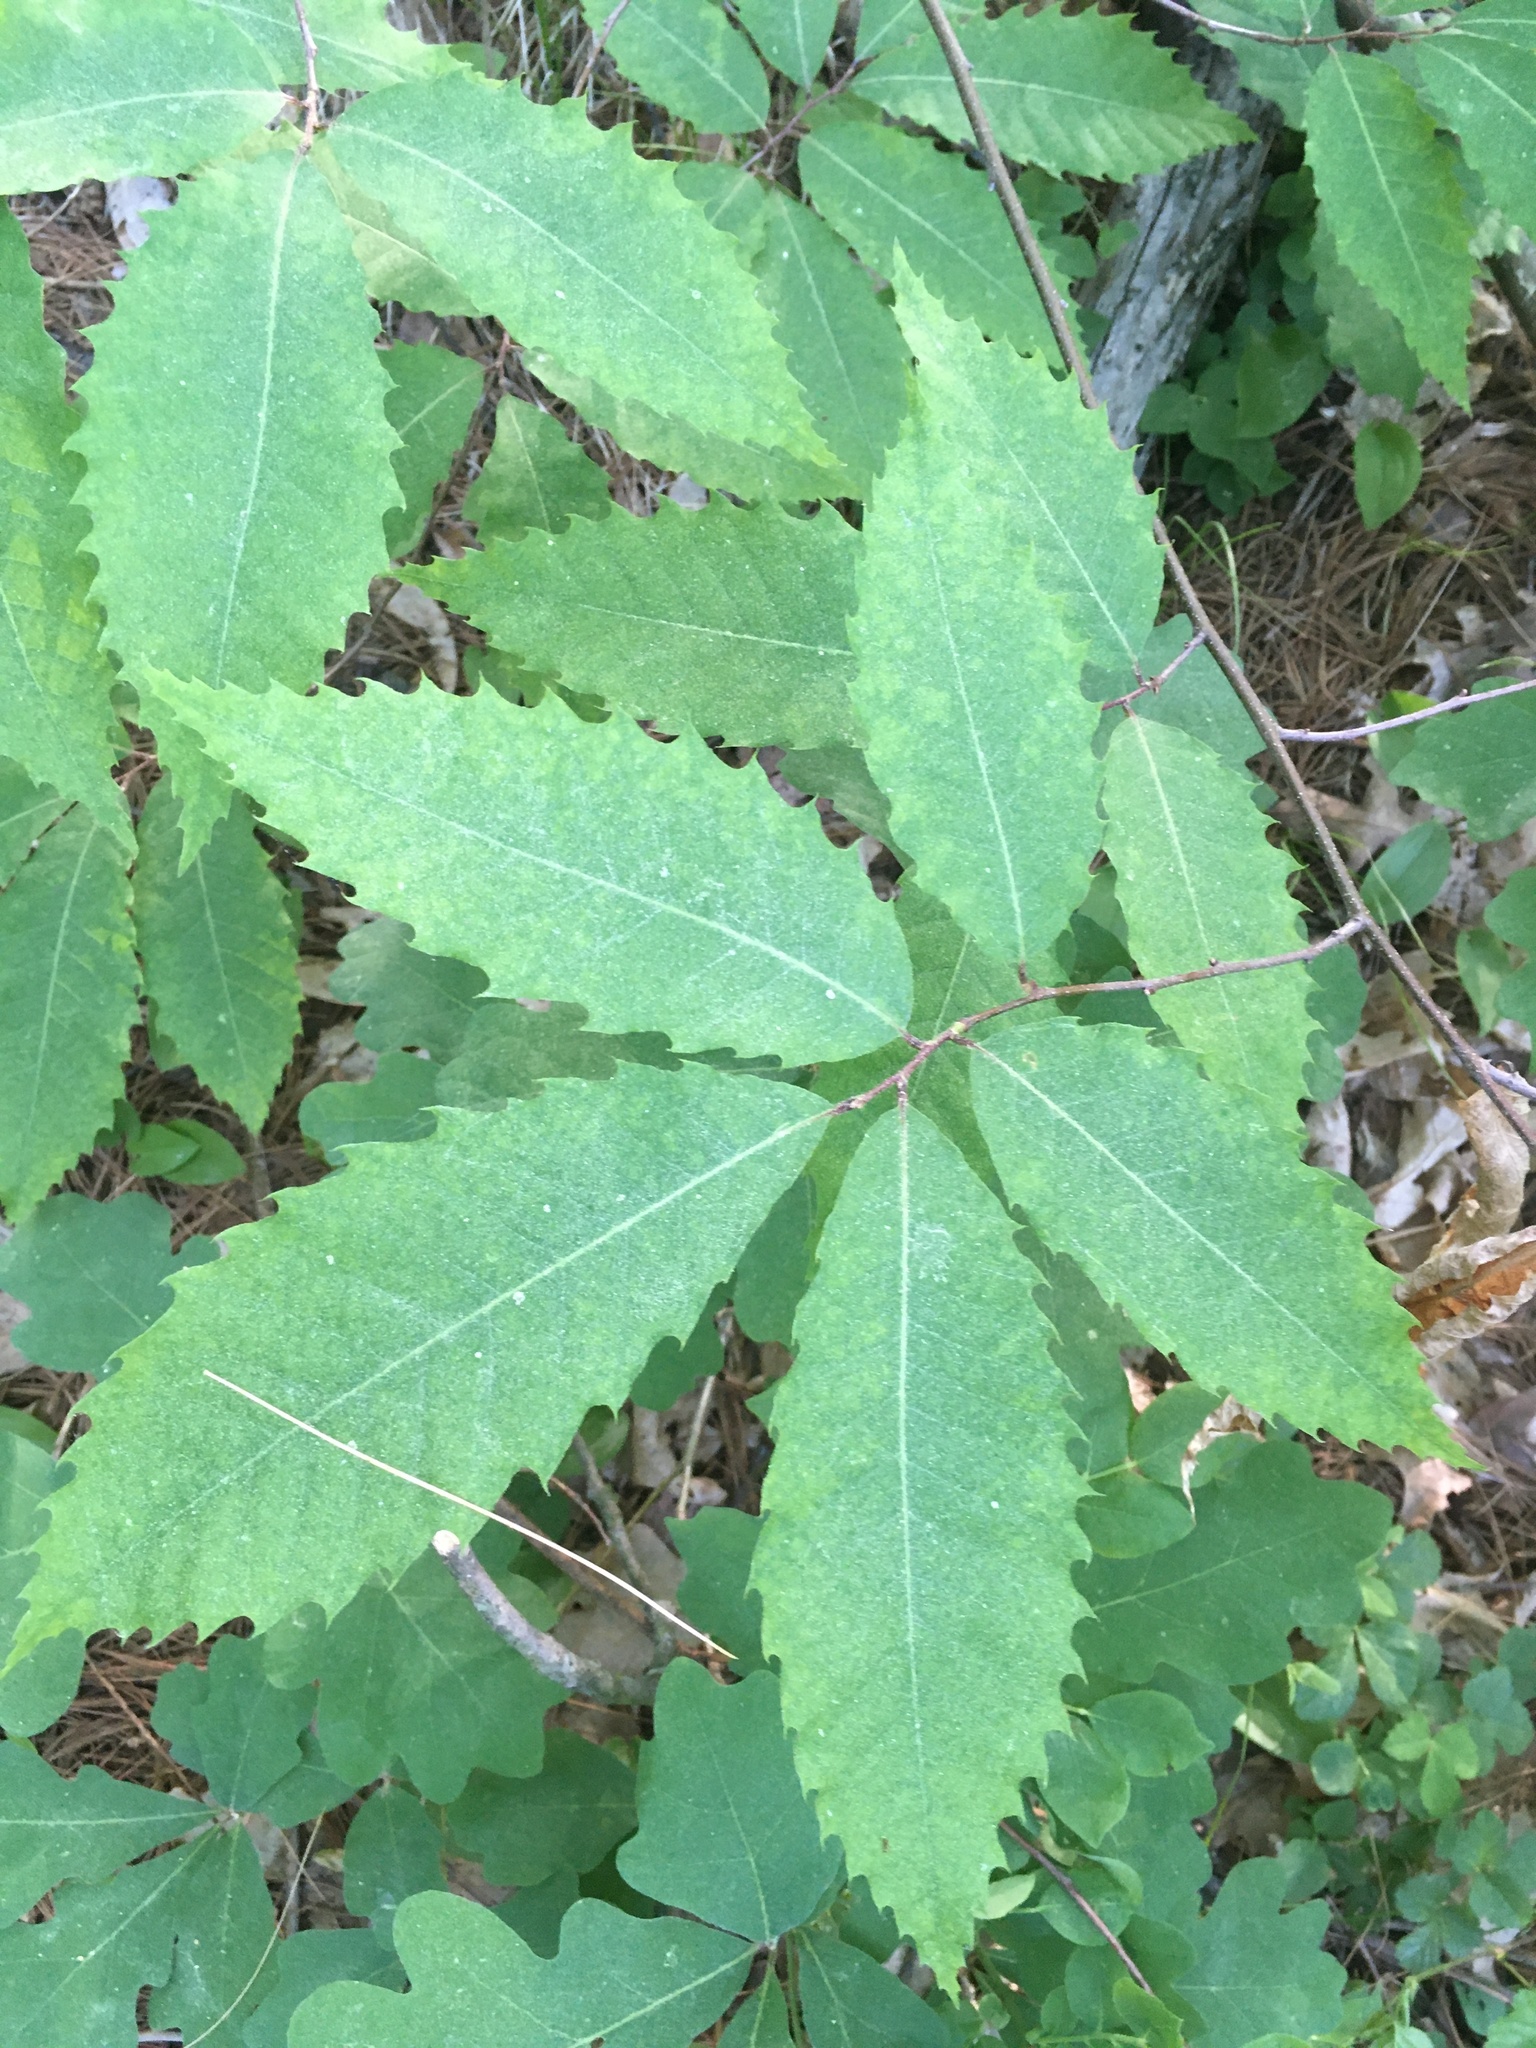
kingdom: Plantae
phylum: Tracheophyta
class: Magnoliopsida
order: Fagales
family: Fagaceae
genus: Castanea
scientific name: Castanea dentata
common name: American chestnut
